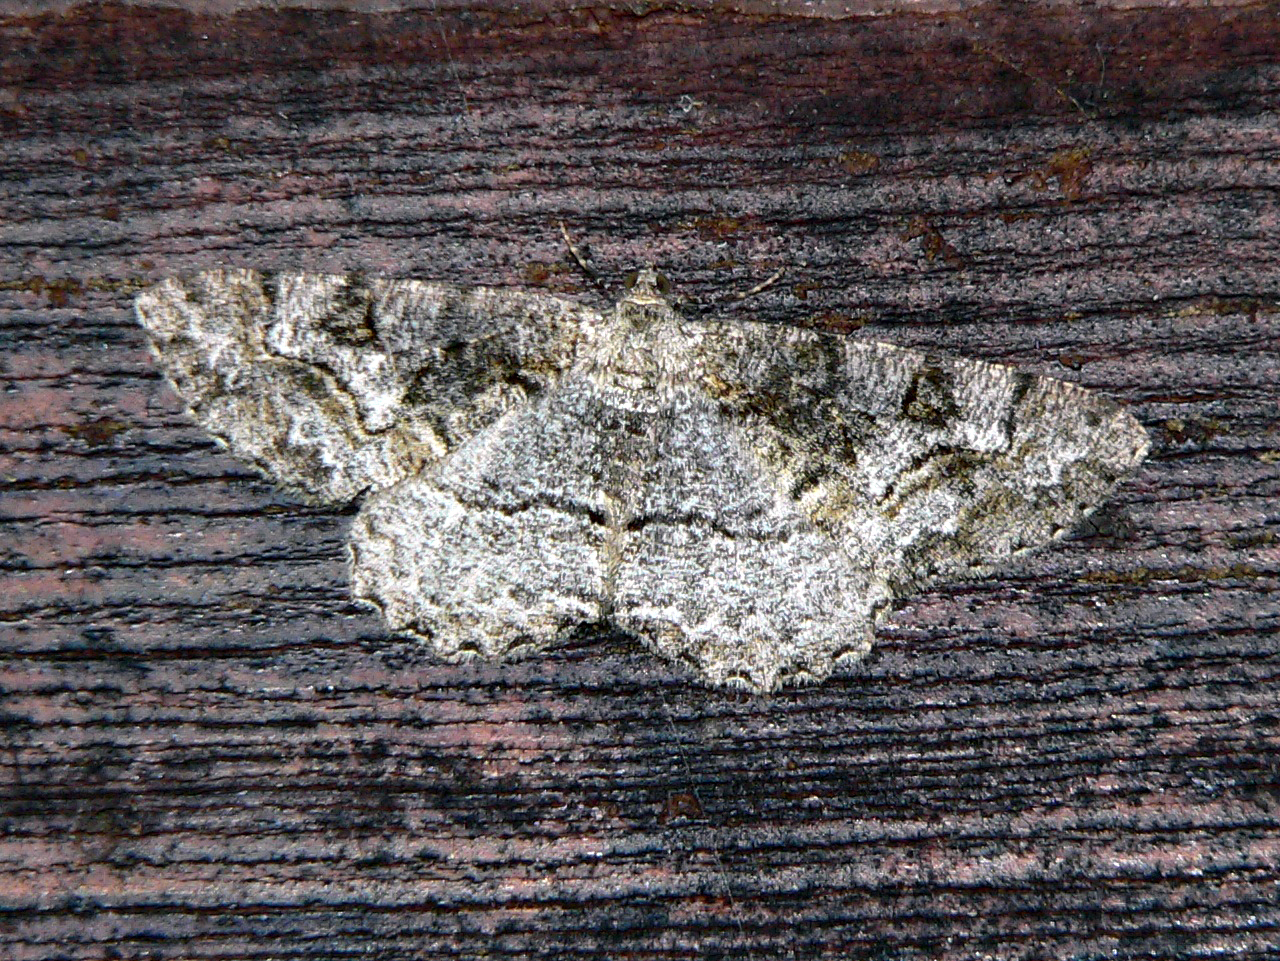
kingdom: Animalia
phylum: Arthropoda
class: Insecta
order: Lepidoptera
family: Geometridae
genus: Alcis
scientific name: Alcis repandata
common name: Mottled beauty
